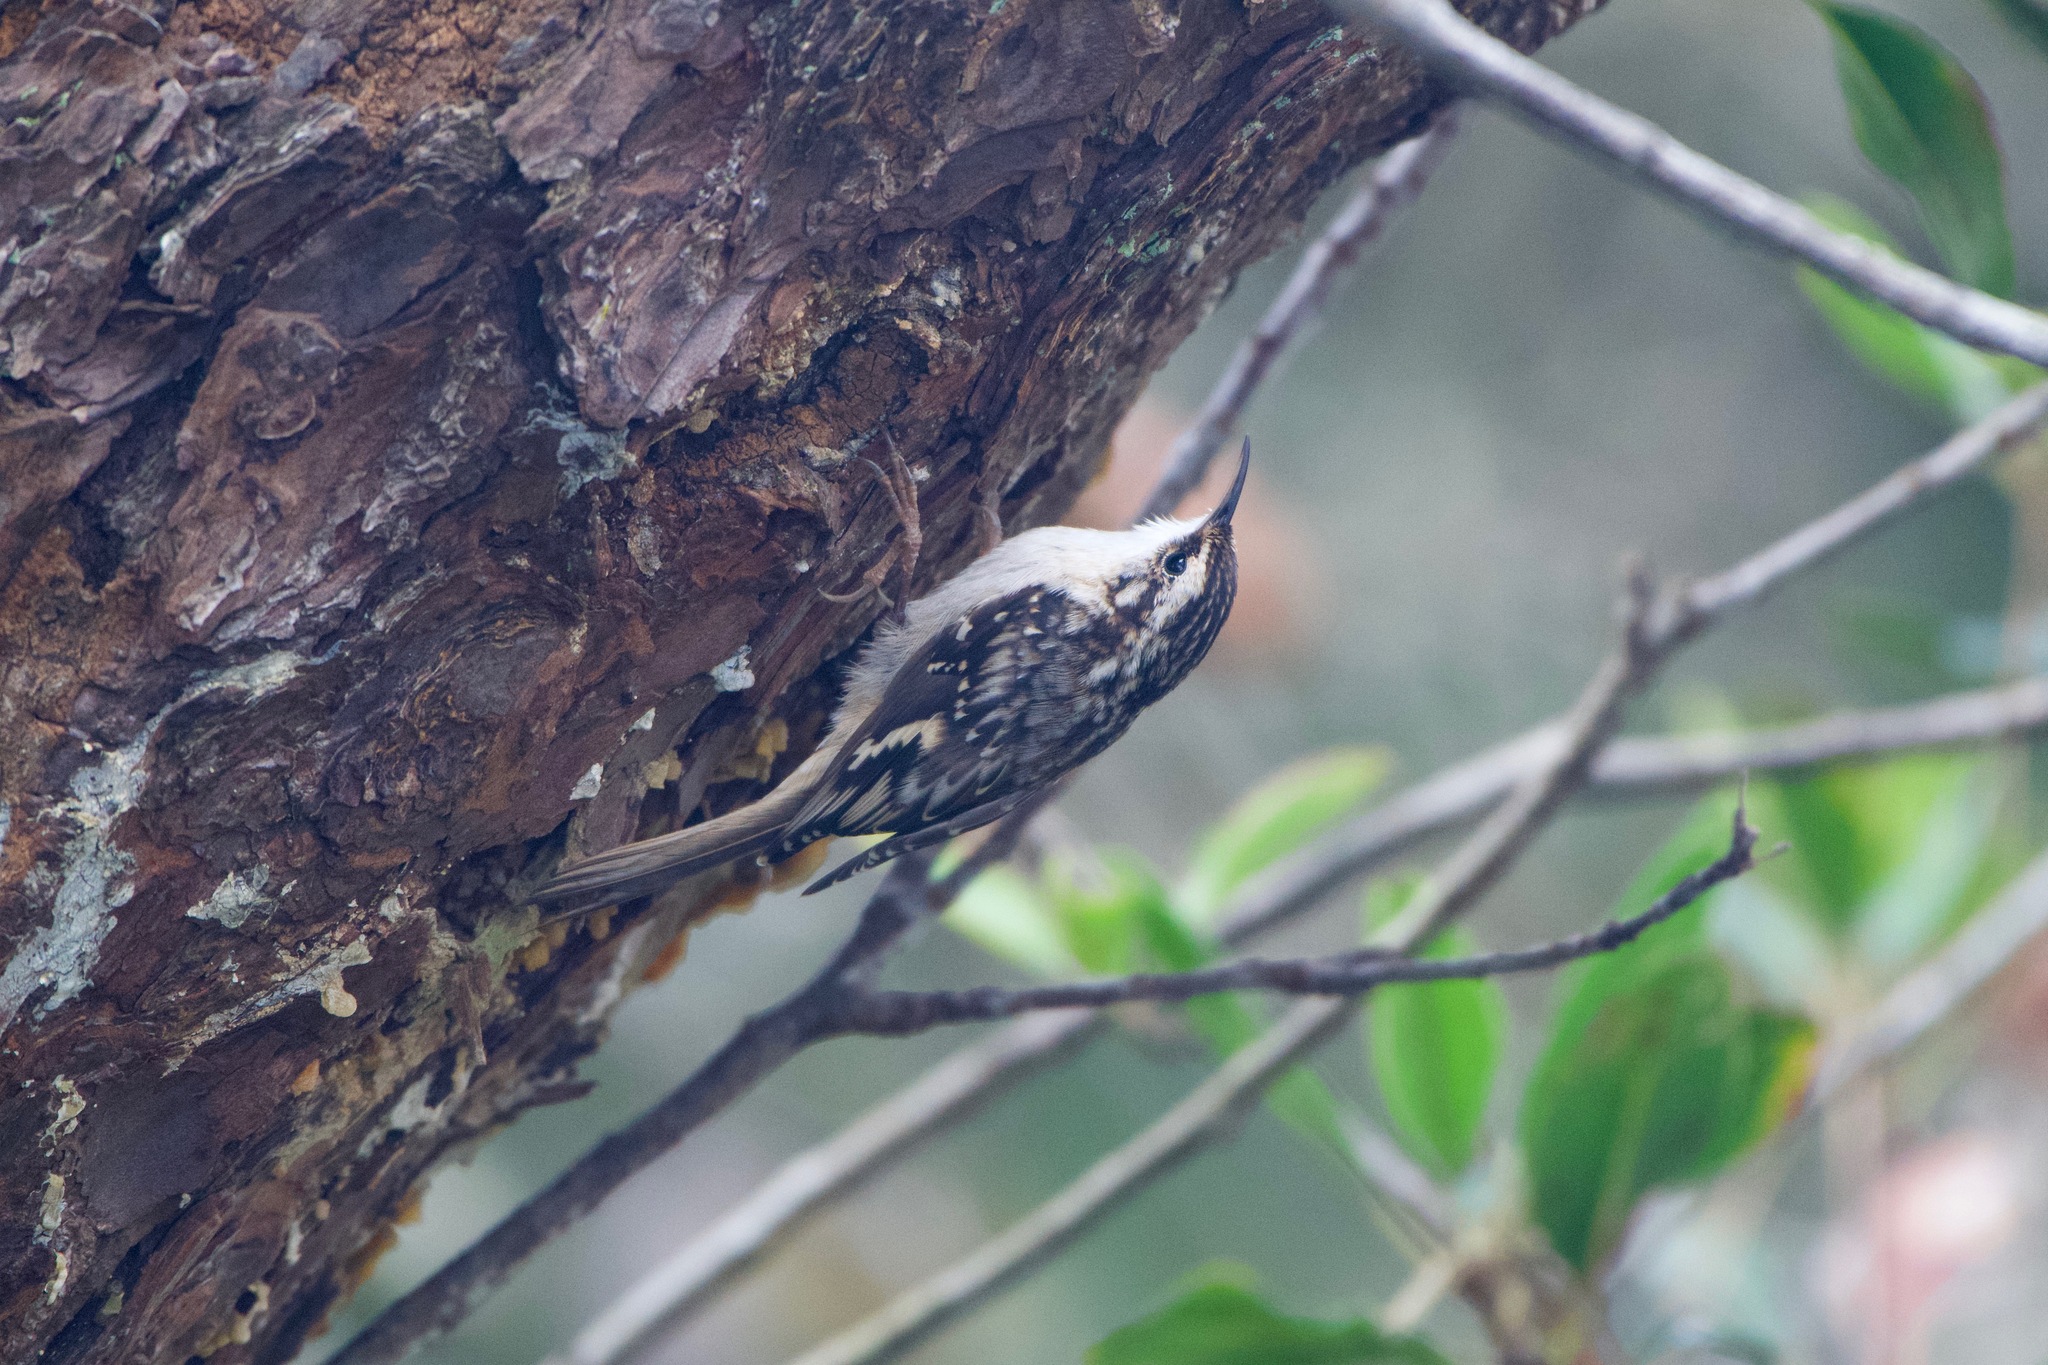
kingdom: Animalia
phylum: Chordata
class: Aves
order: Passeriformes
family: Certhiidae
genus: Certhia
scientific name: Certhia americana
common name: Brown creeper
